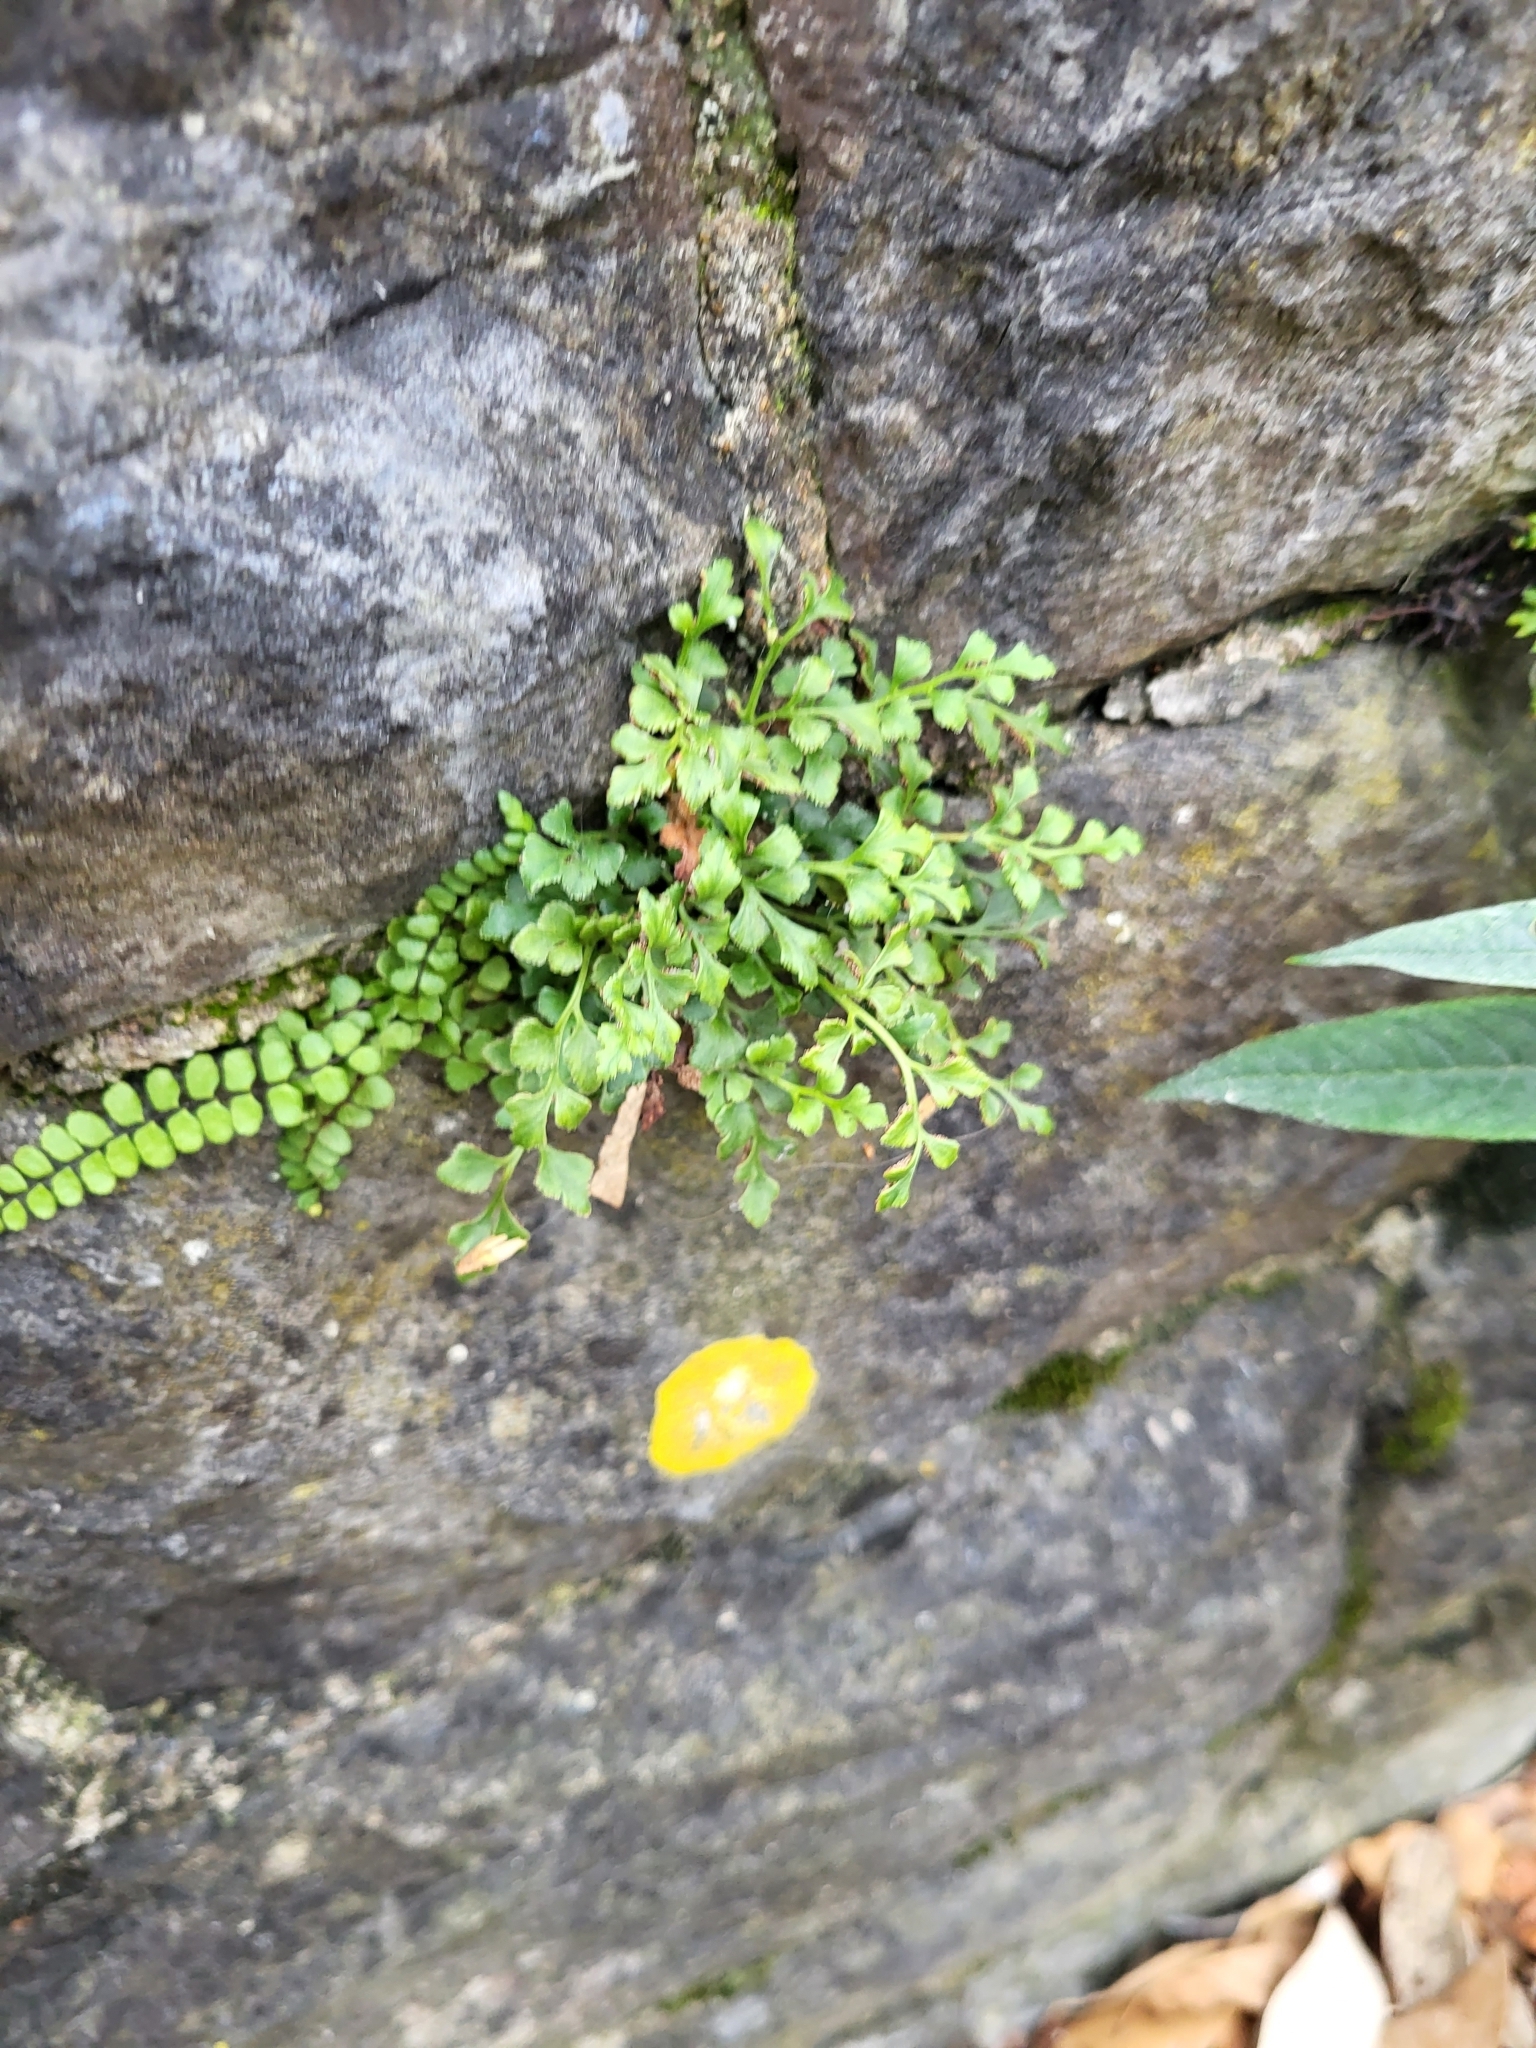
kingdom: Plantae
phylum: Tracheophyta
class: Polypodiopsida
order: Polypodiales
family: Aspleniaceae
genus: Asplenium
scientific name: Asplenium ruta-muraria
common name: Wall-rue
